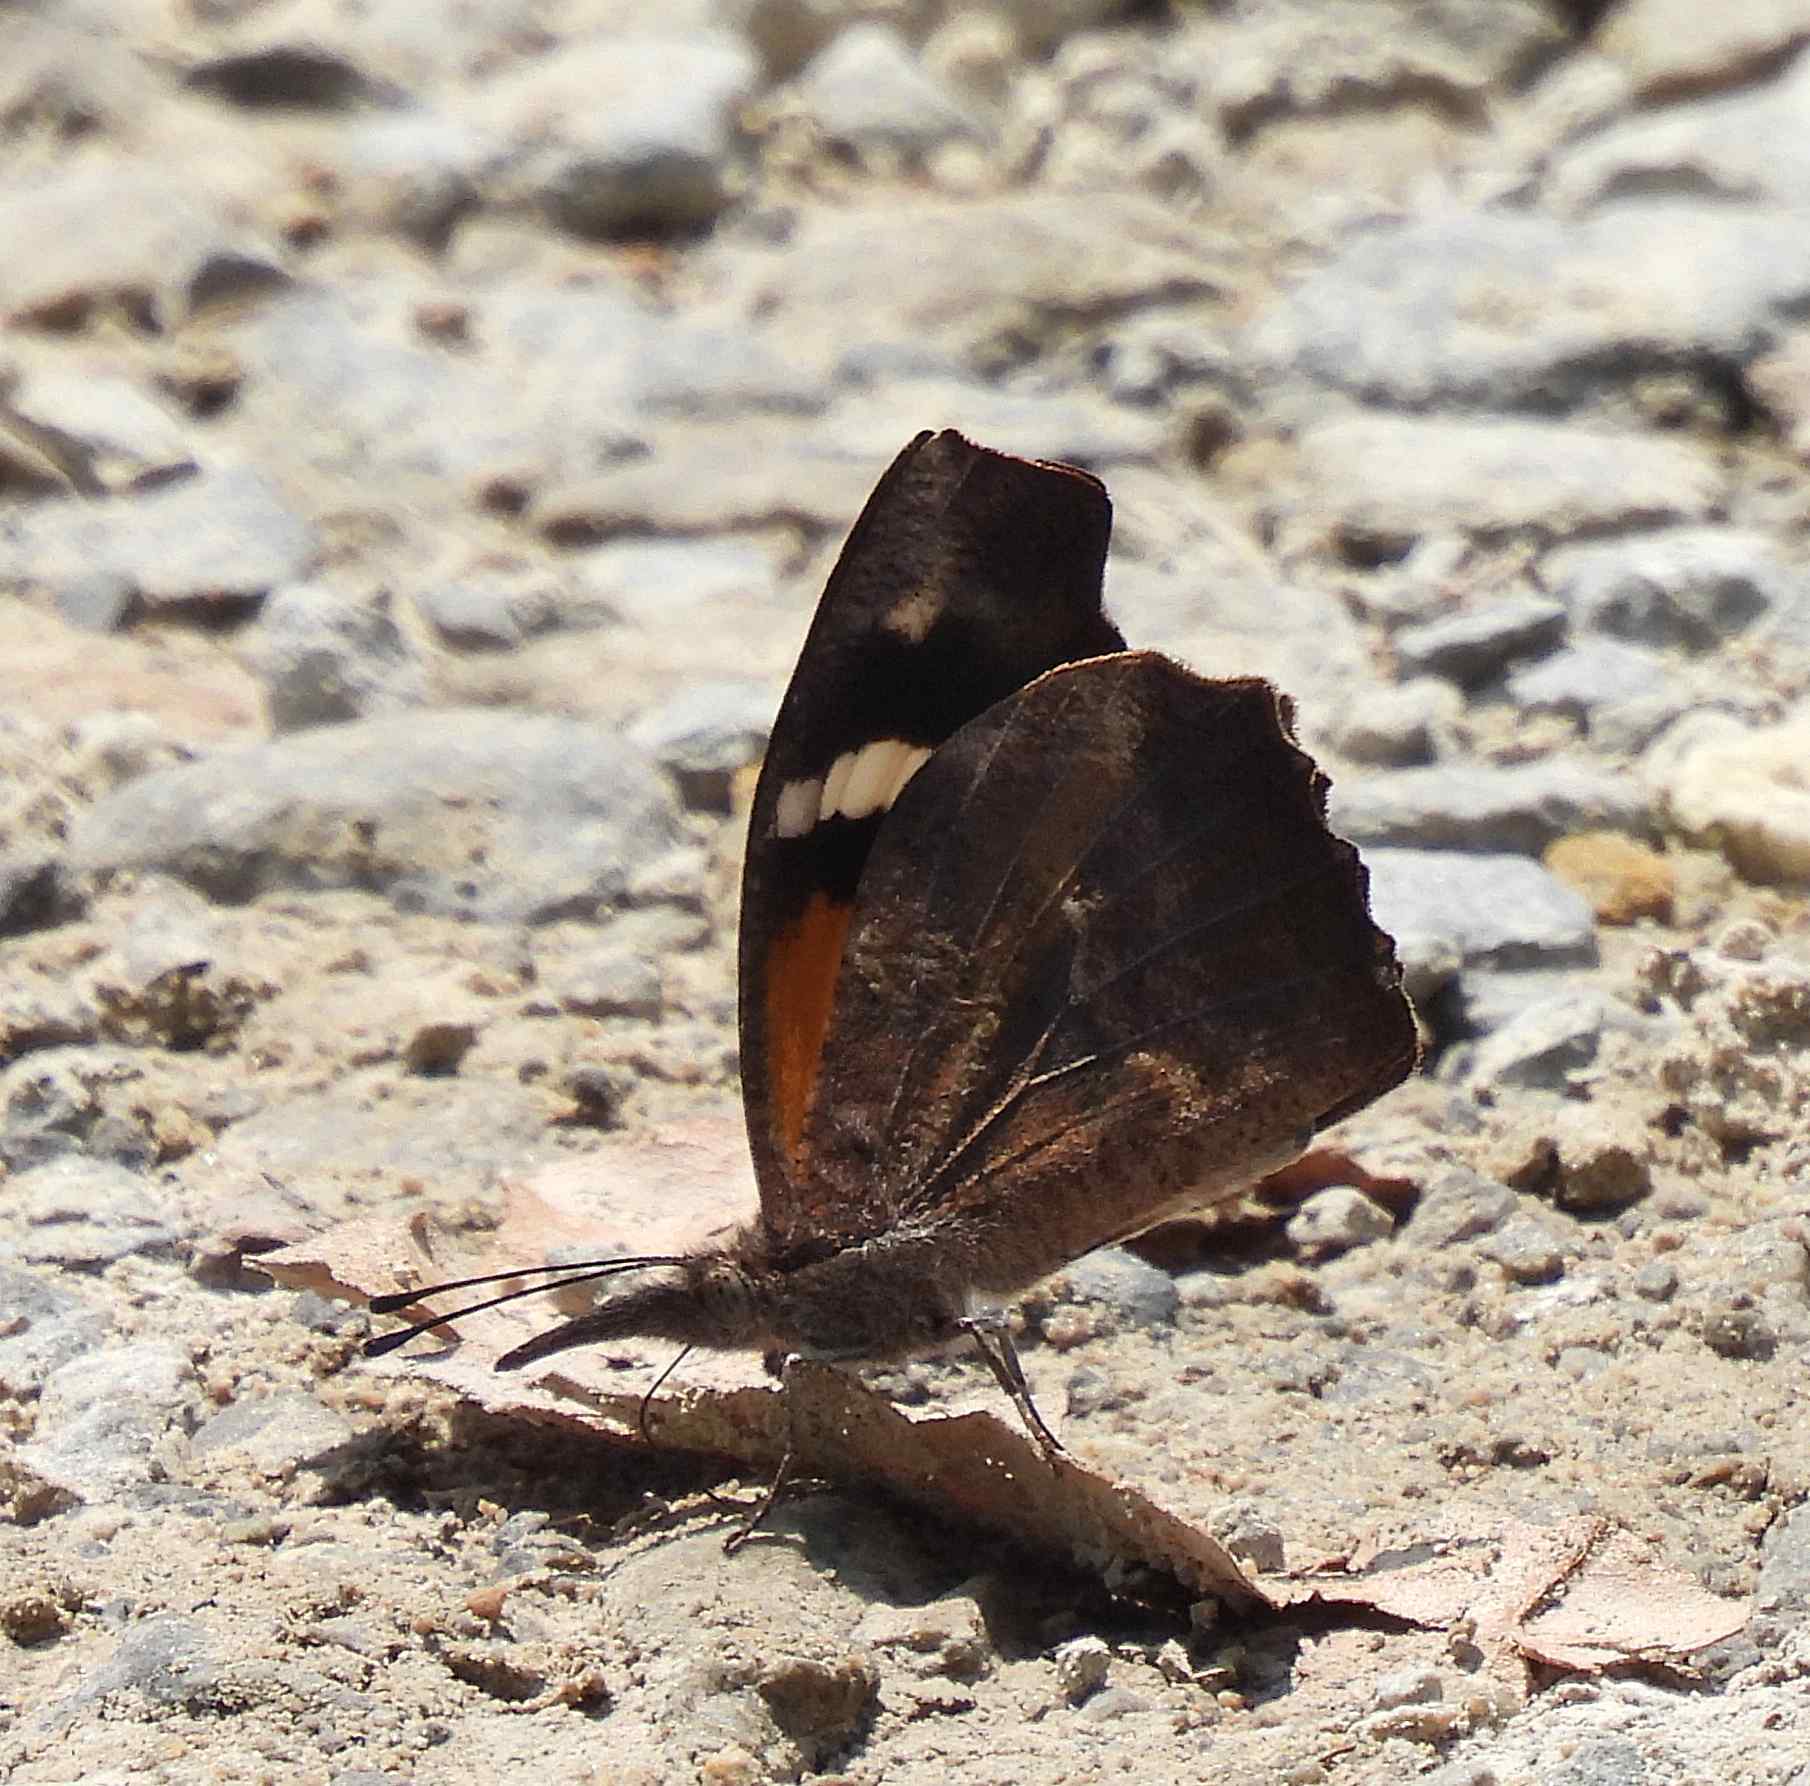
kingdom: Animalia
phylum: Arthropoda
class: Insecta
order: Lepidoptera
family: Nymphalidae
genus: Libytheana
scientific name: Libytheana carinenta
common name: American snout
